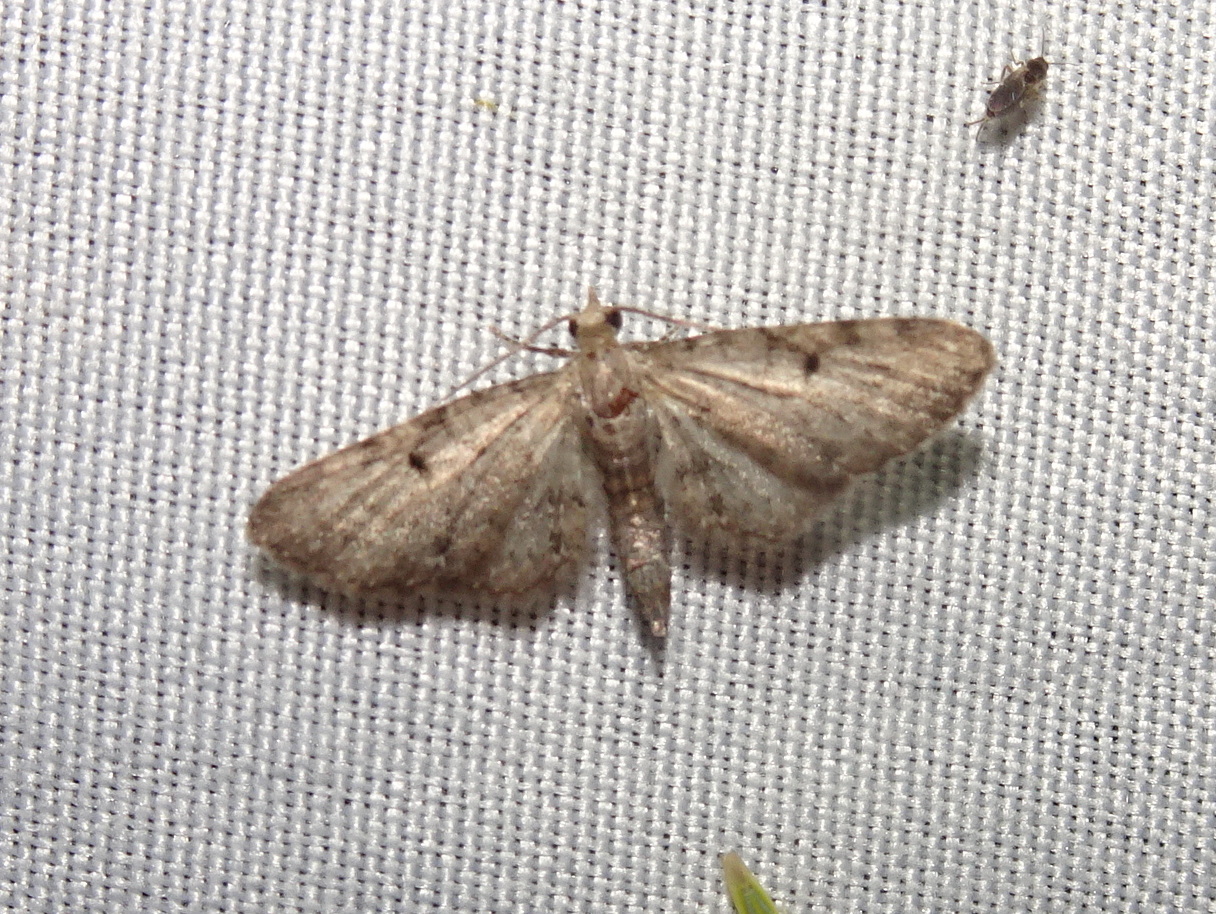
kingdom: Animalia
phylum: Arthropoda
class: Insecta
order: Lepidoptera
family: Geometridae
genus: Eupithecia
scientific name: Eupithecia miserulata
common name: Common eupithecia
